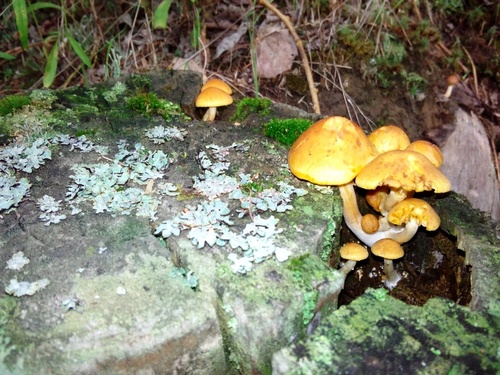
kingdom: Fungi
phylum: Basidiomycota
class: Agaricomycetes
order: Agaricales
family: Hymenogastraceae
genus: Gymnopilus
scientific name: Gymnopilus penetrans
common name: Common rustgill
